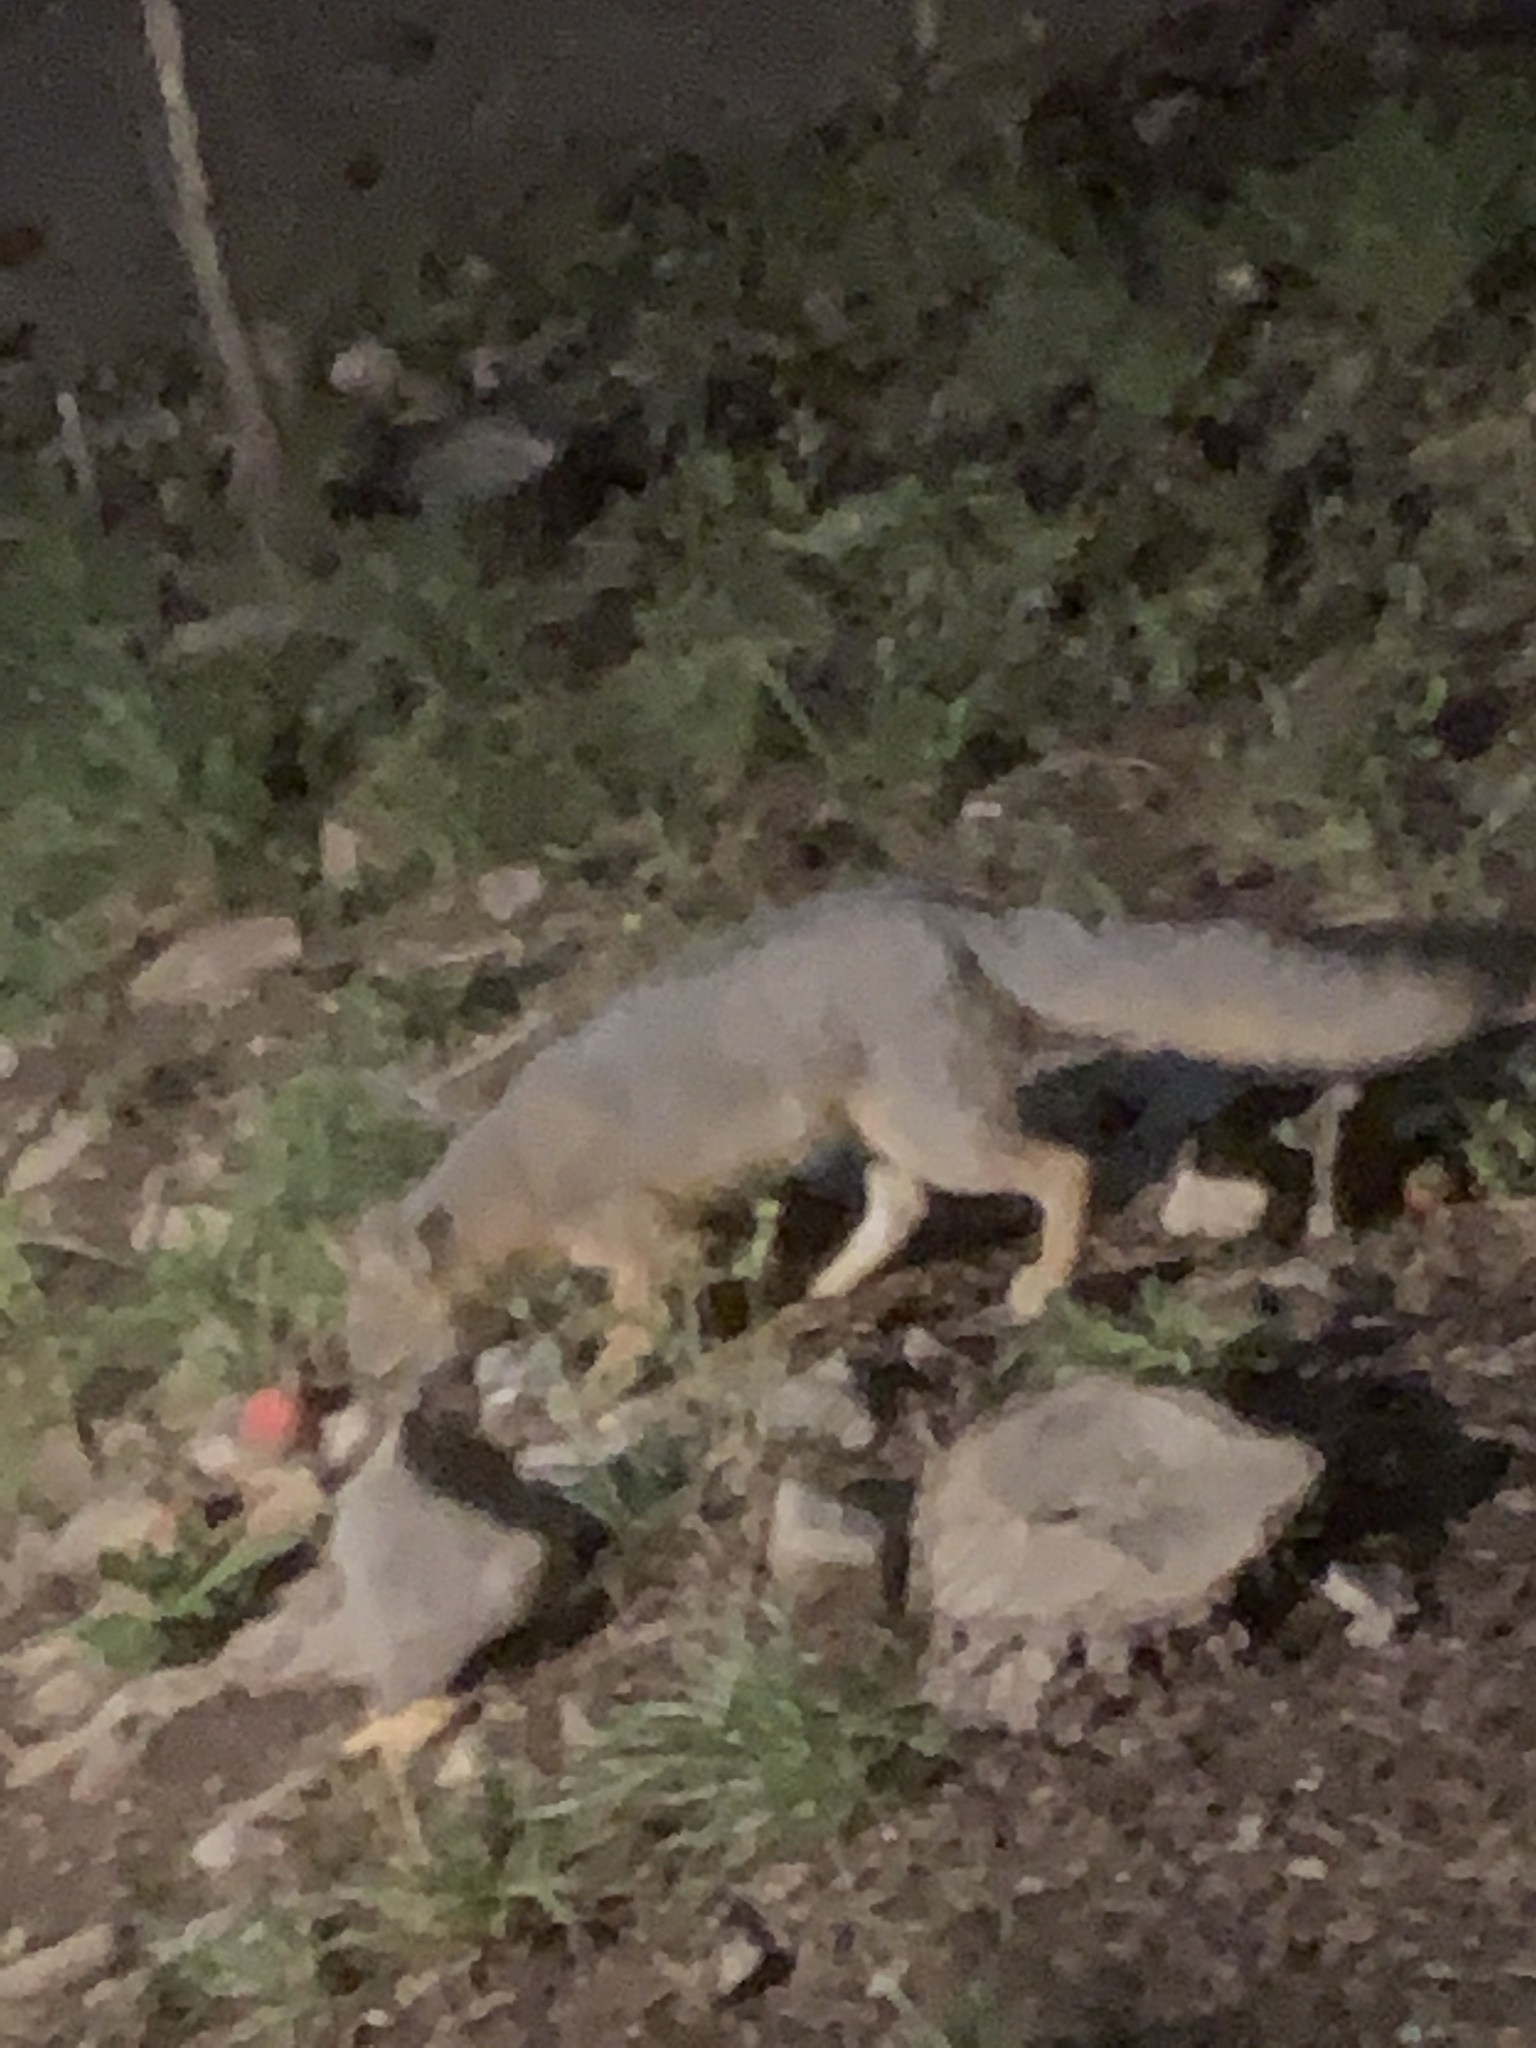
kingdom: Animalia
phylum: Chordata
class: Mammalia
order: Carnivora
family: Canidae
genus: Urocyon
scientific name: Urocyon cinereoargenteus
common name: Gray fox
